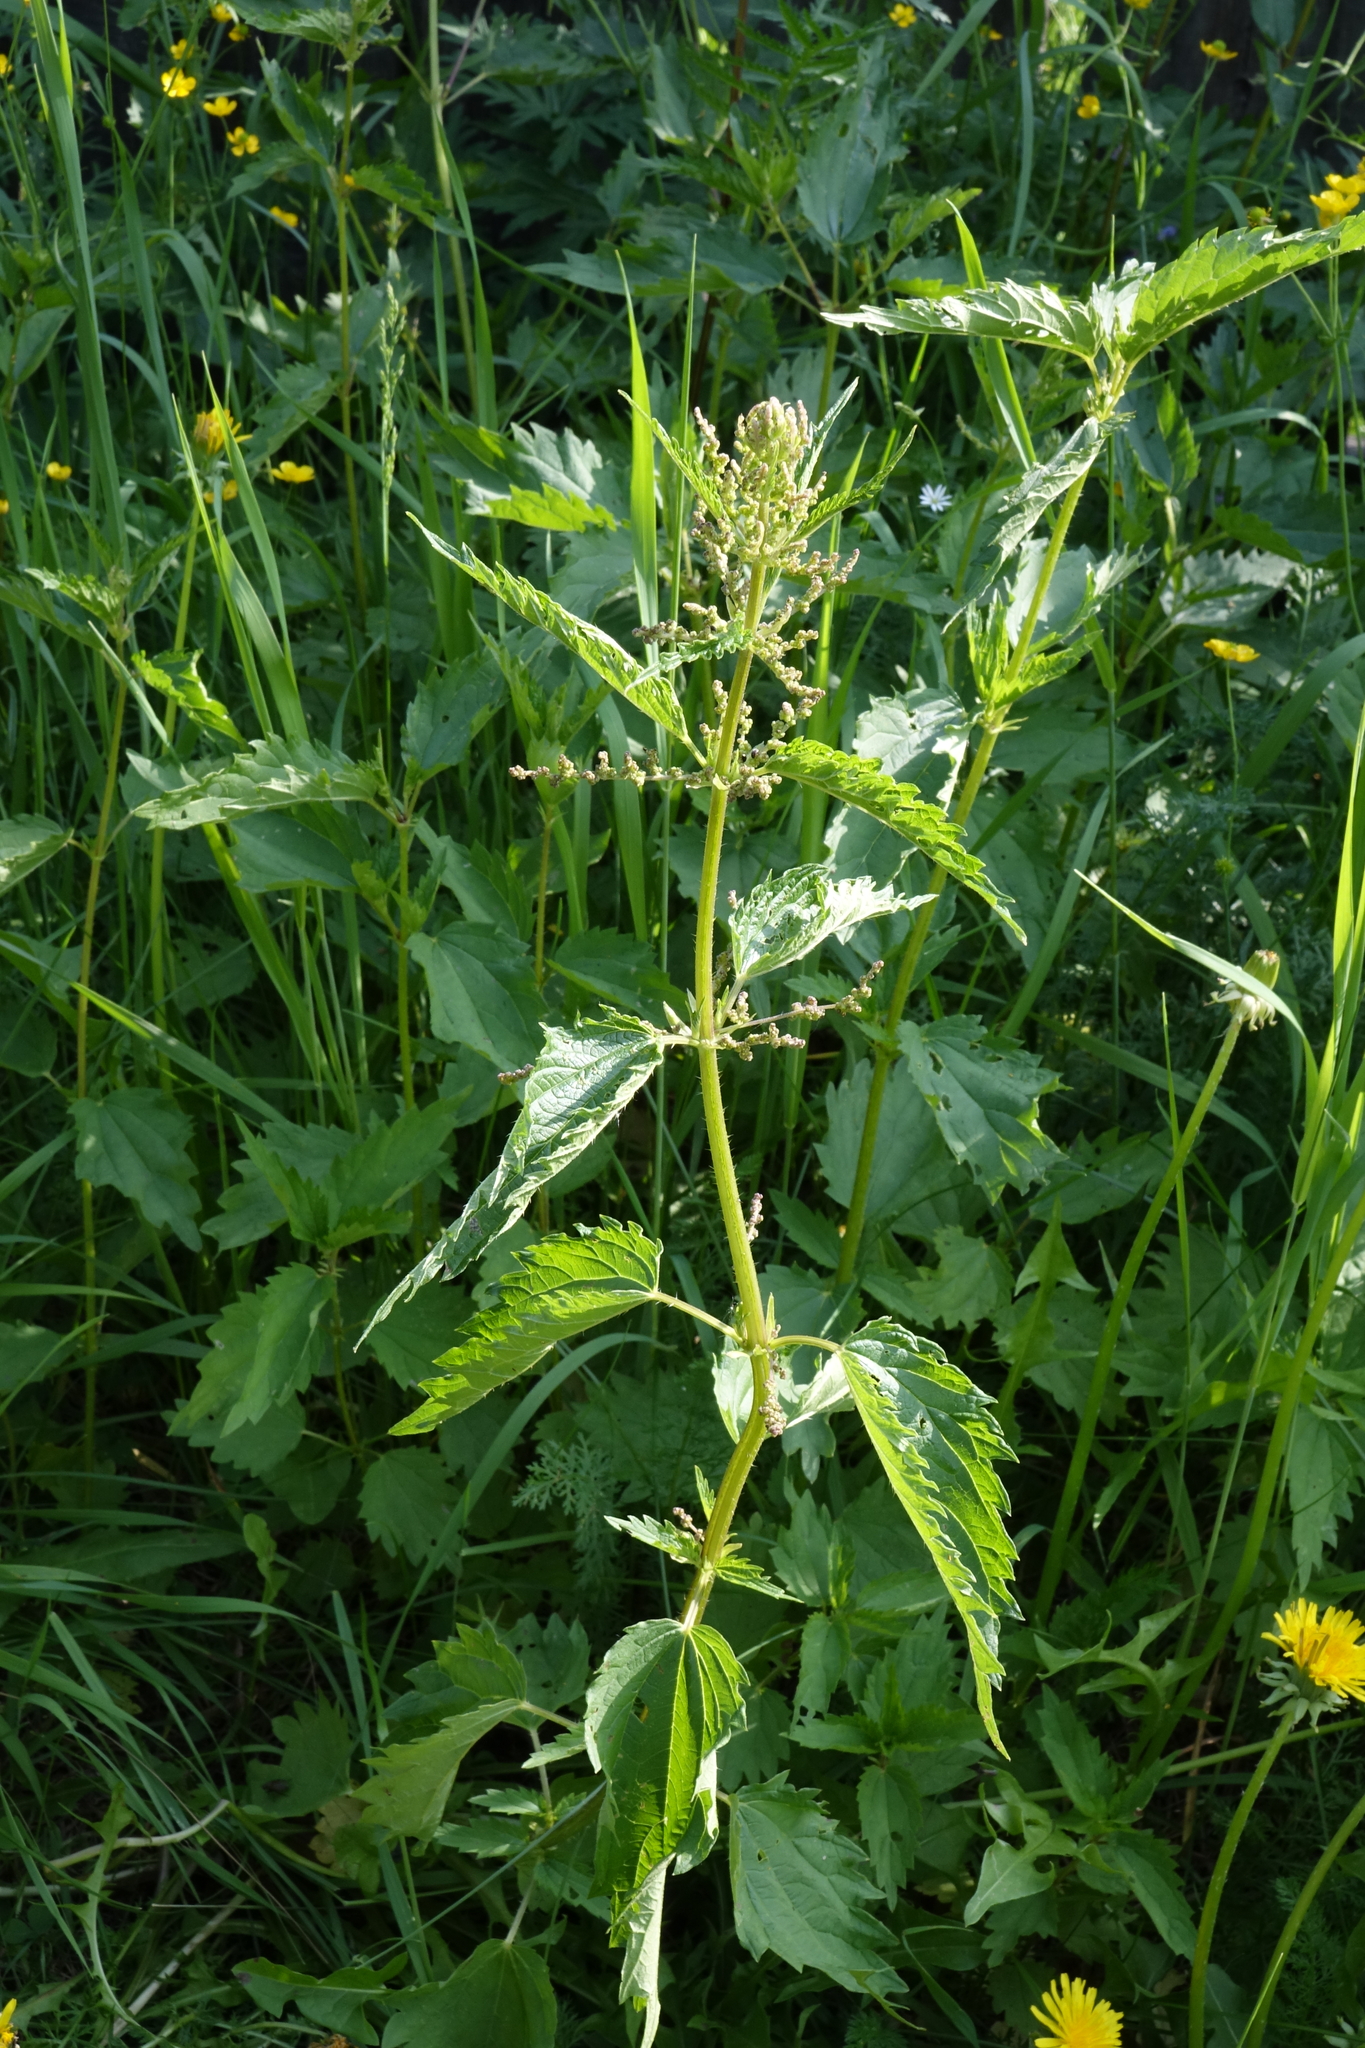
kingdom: Plantae
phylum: Tracheophyta
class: Magnoliopsida
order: Rosales
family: Urticaceae
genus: Urtica
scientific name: Urtica dioica
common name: Common nettle
